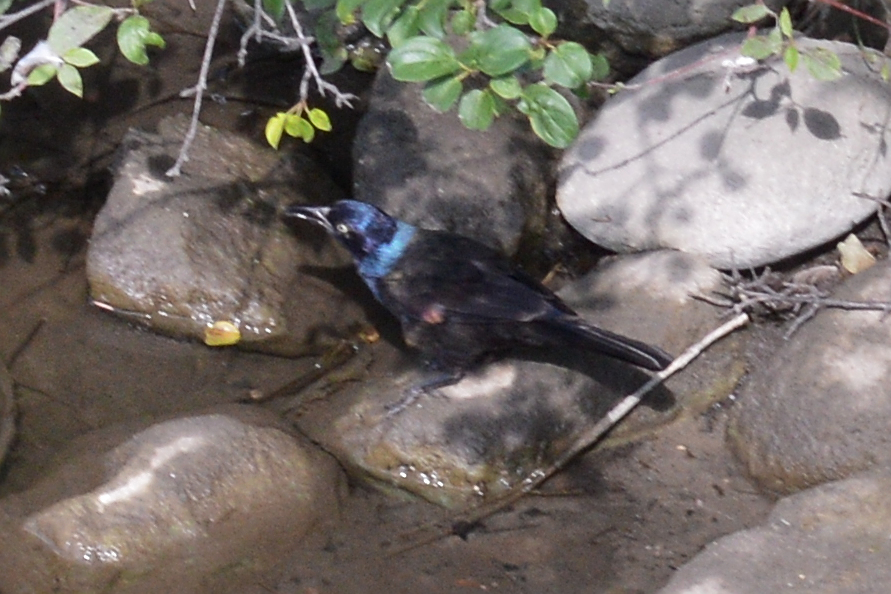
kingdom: Animalia
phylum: Chordata
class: Aves
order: Passeriformes
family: Icteridae
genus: Quiscalus
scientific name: Quiscalus quiscula
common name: Common grackle
